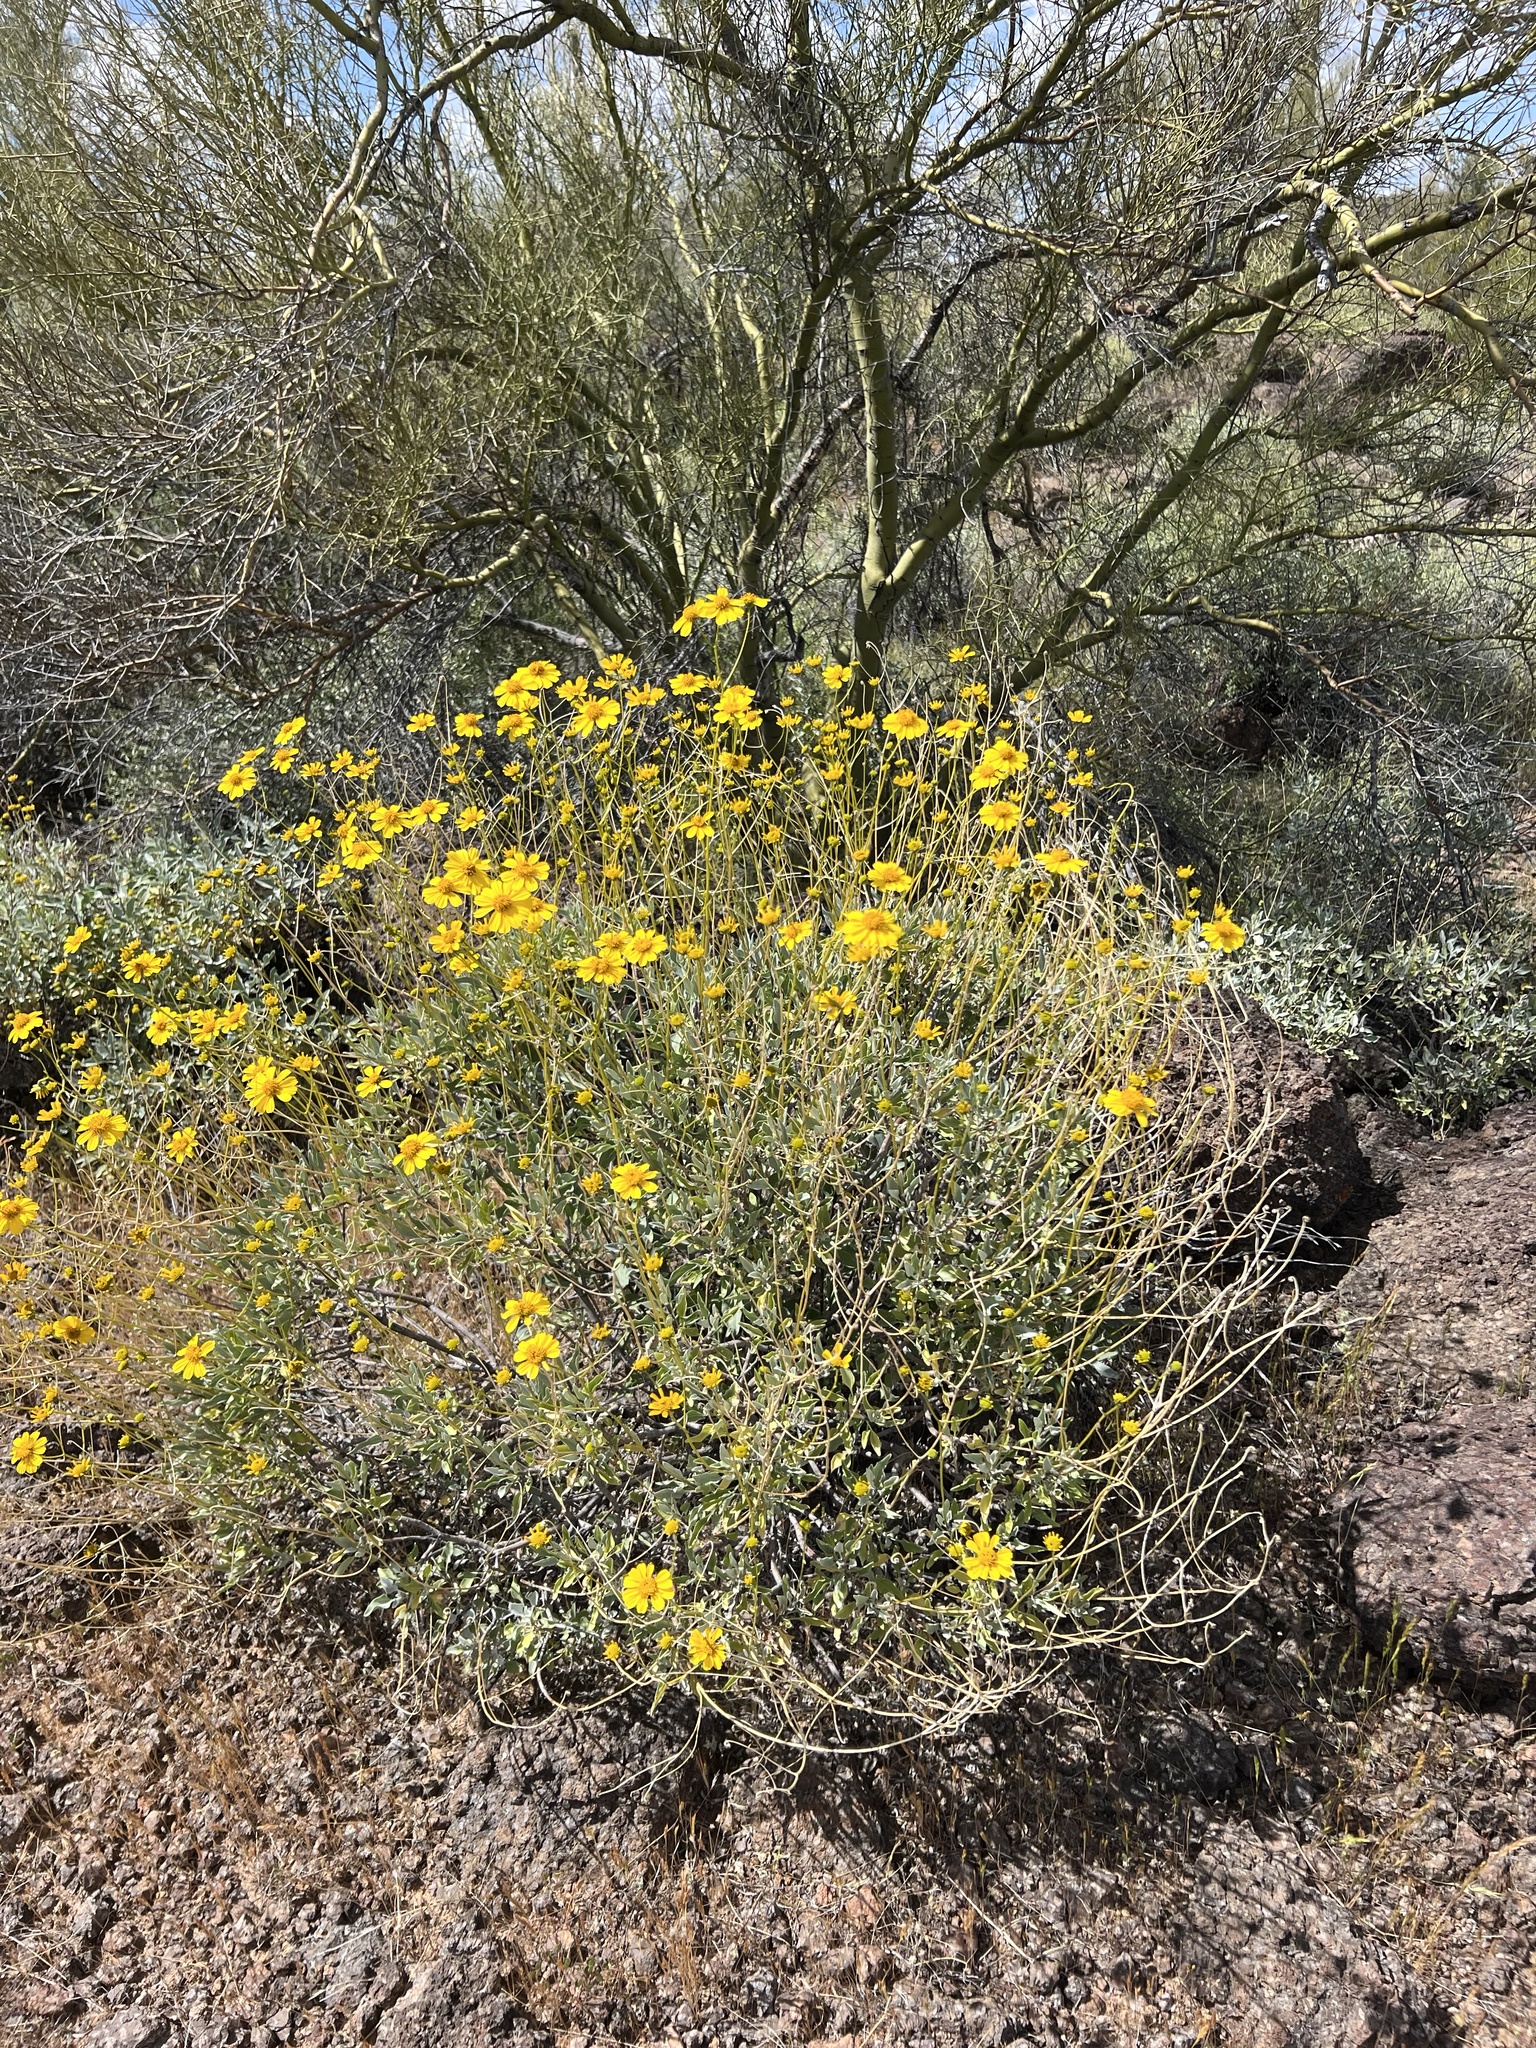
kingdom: Plantae
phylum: Tracheophyta
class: Magnoliopsida
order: Asterales
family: Asteraceae
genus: Encelia
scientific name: Encelia farinosa
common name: Brittlebush
